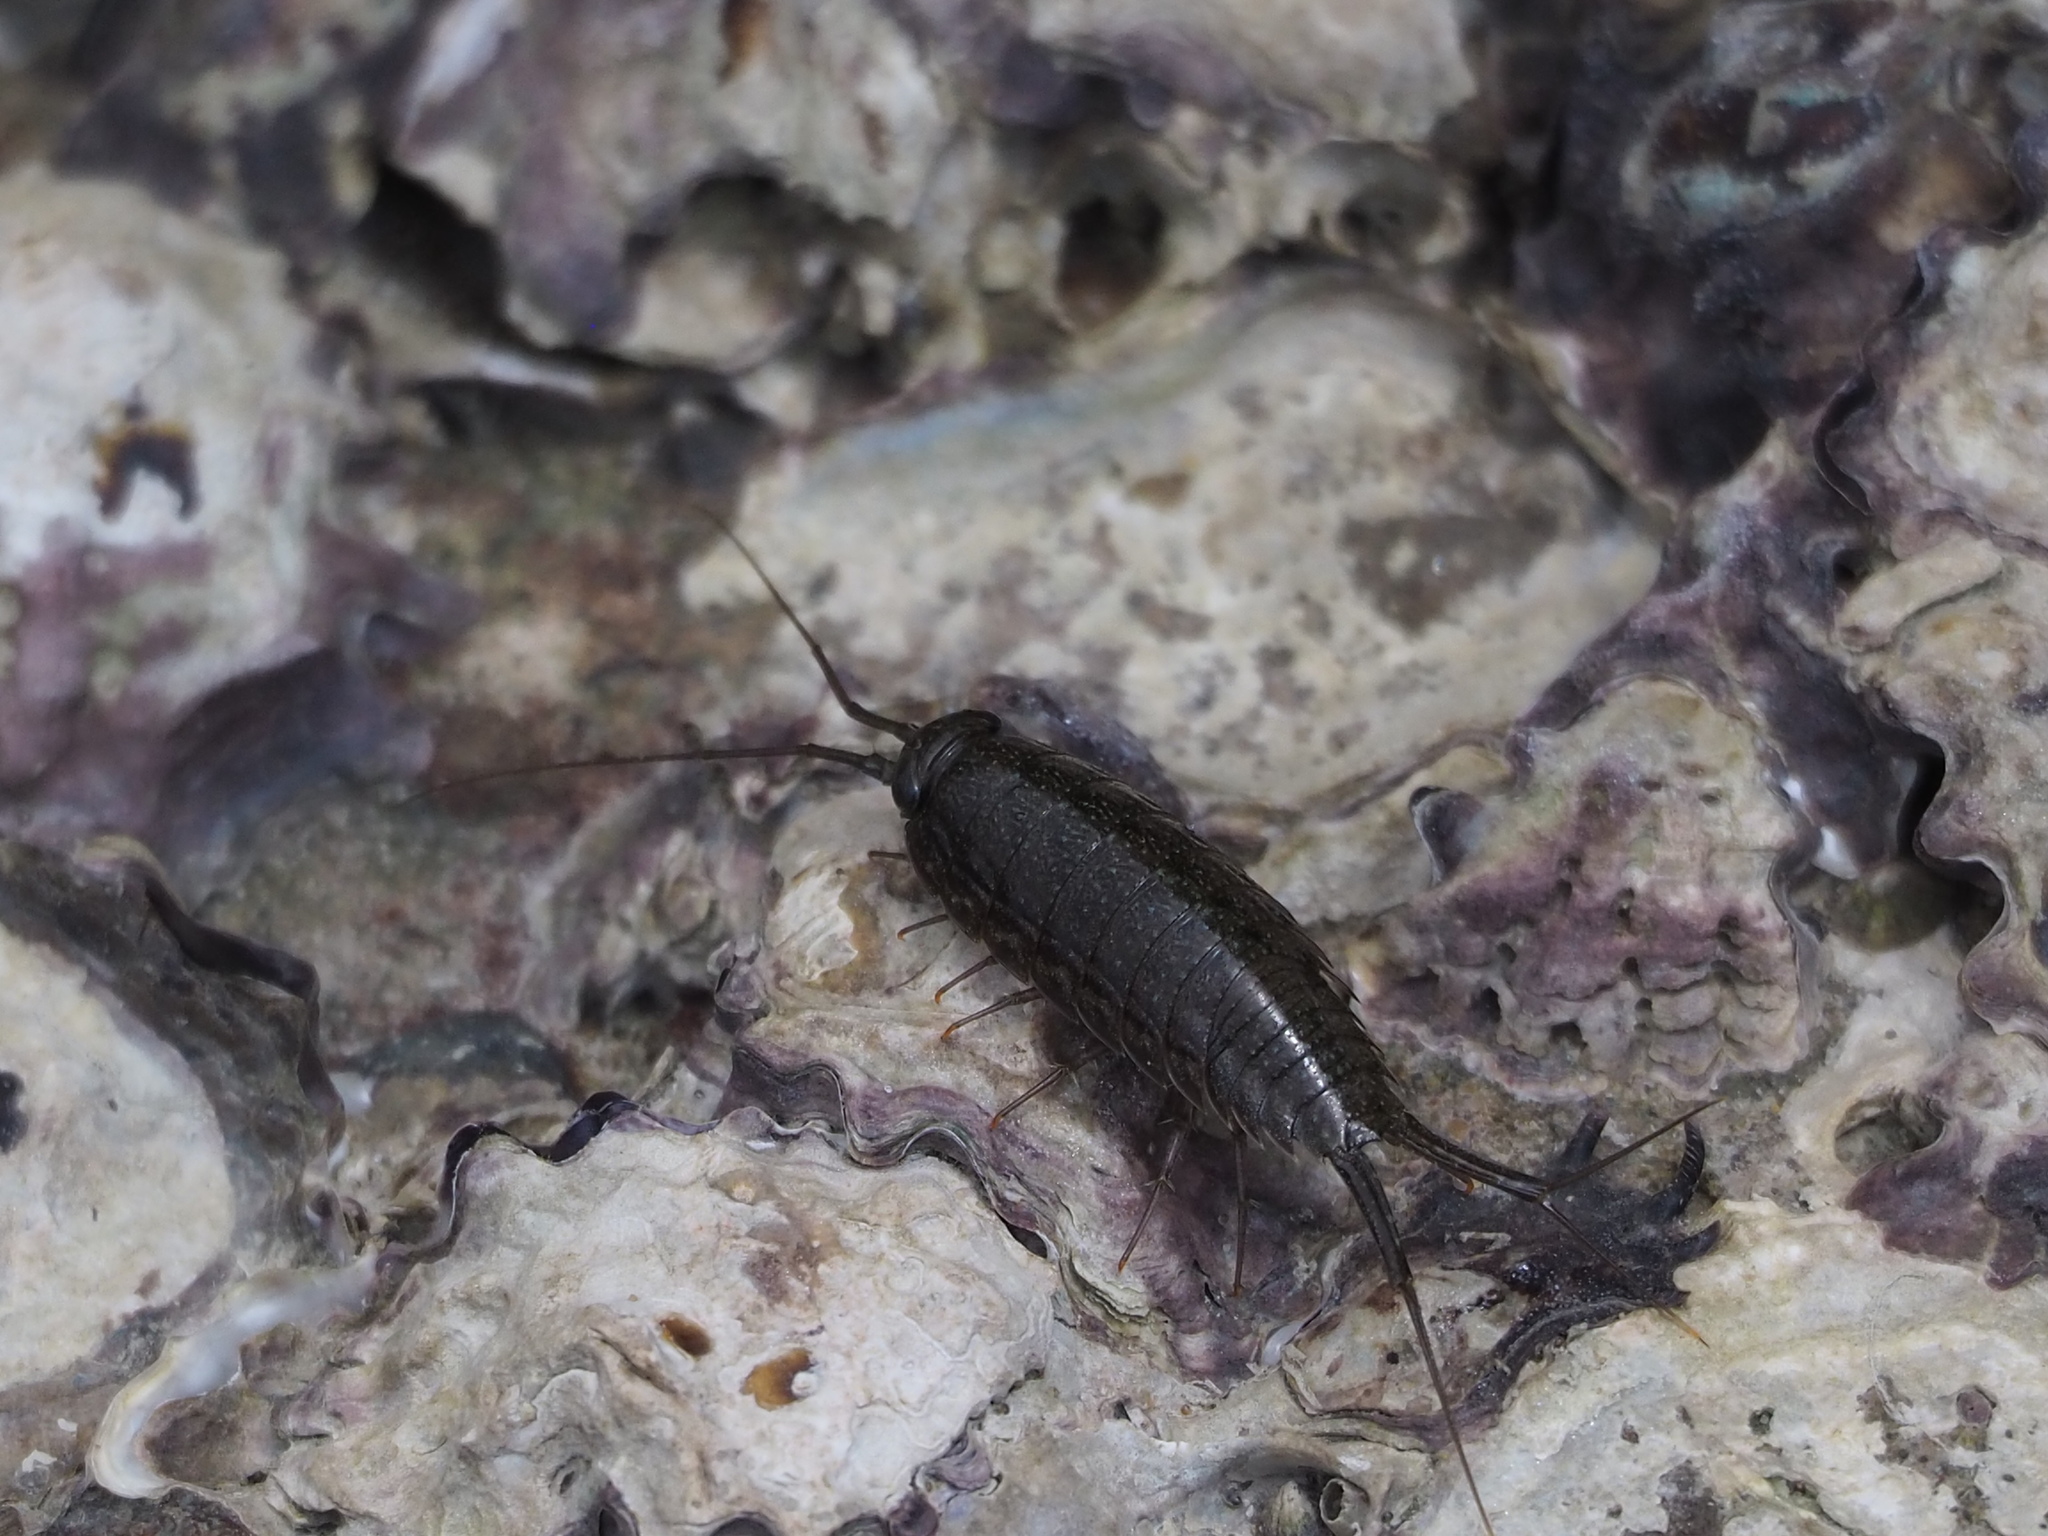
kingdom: Animalia
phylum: Arthropoda
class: Malacostraca
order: Isopoda
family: Ligiidae
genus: Ligia
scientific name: Ligia exotica
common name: Wharf roach
